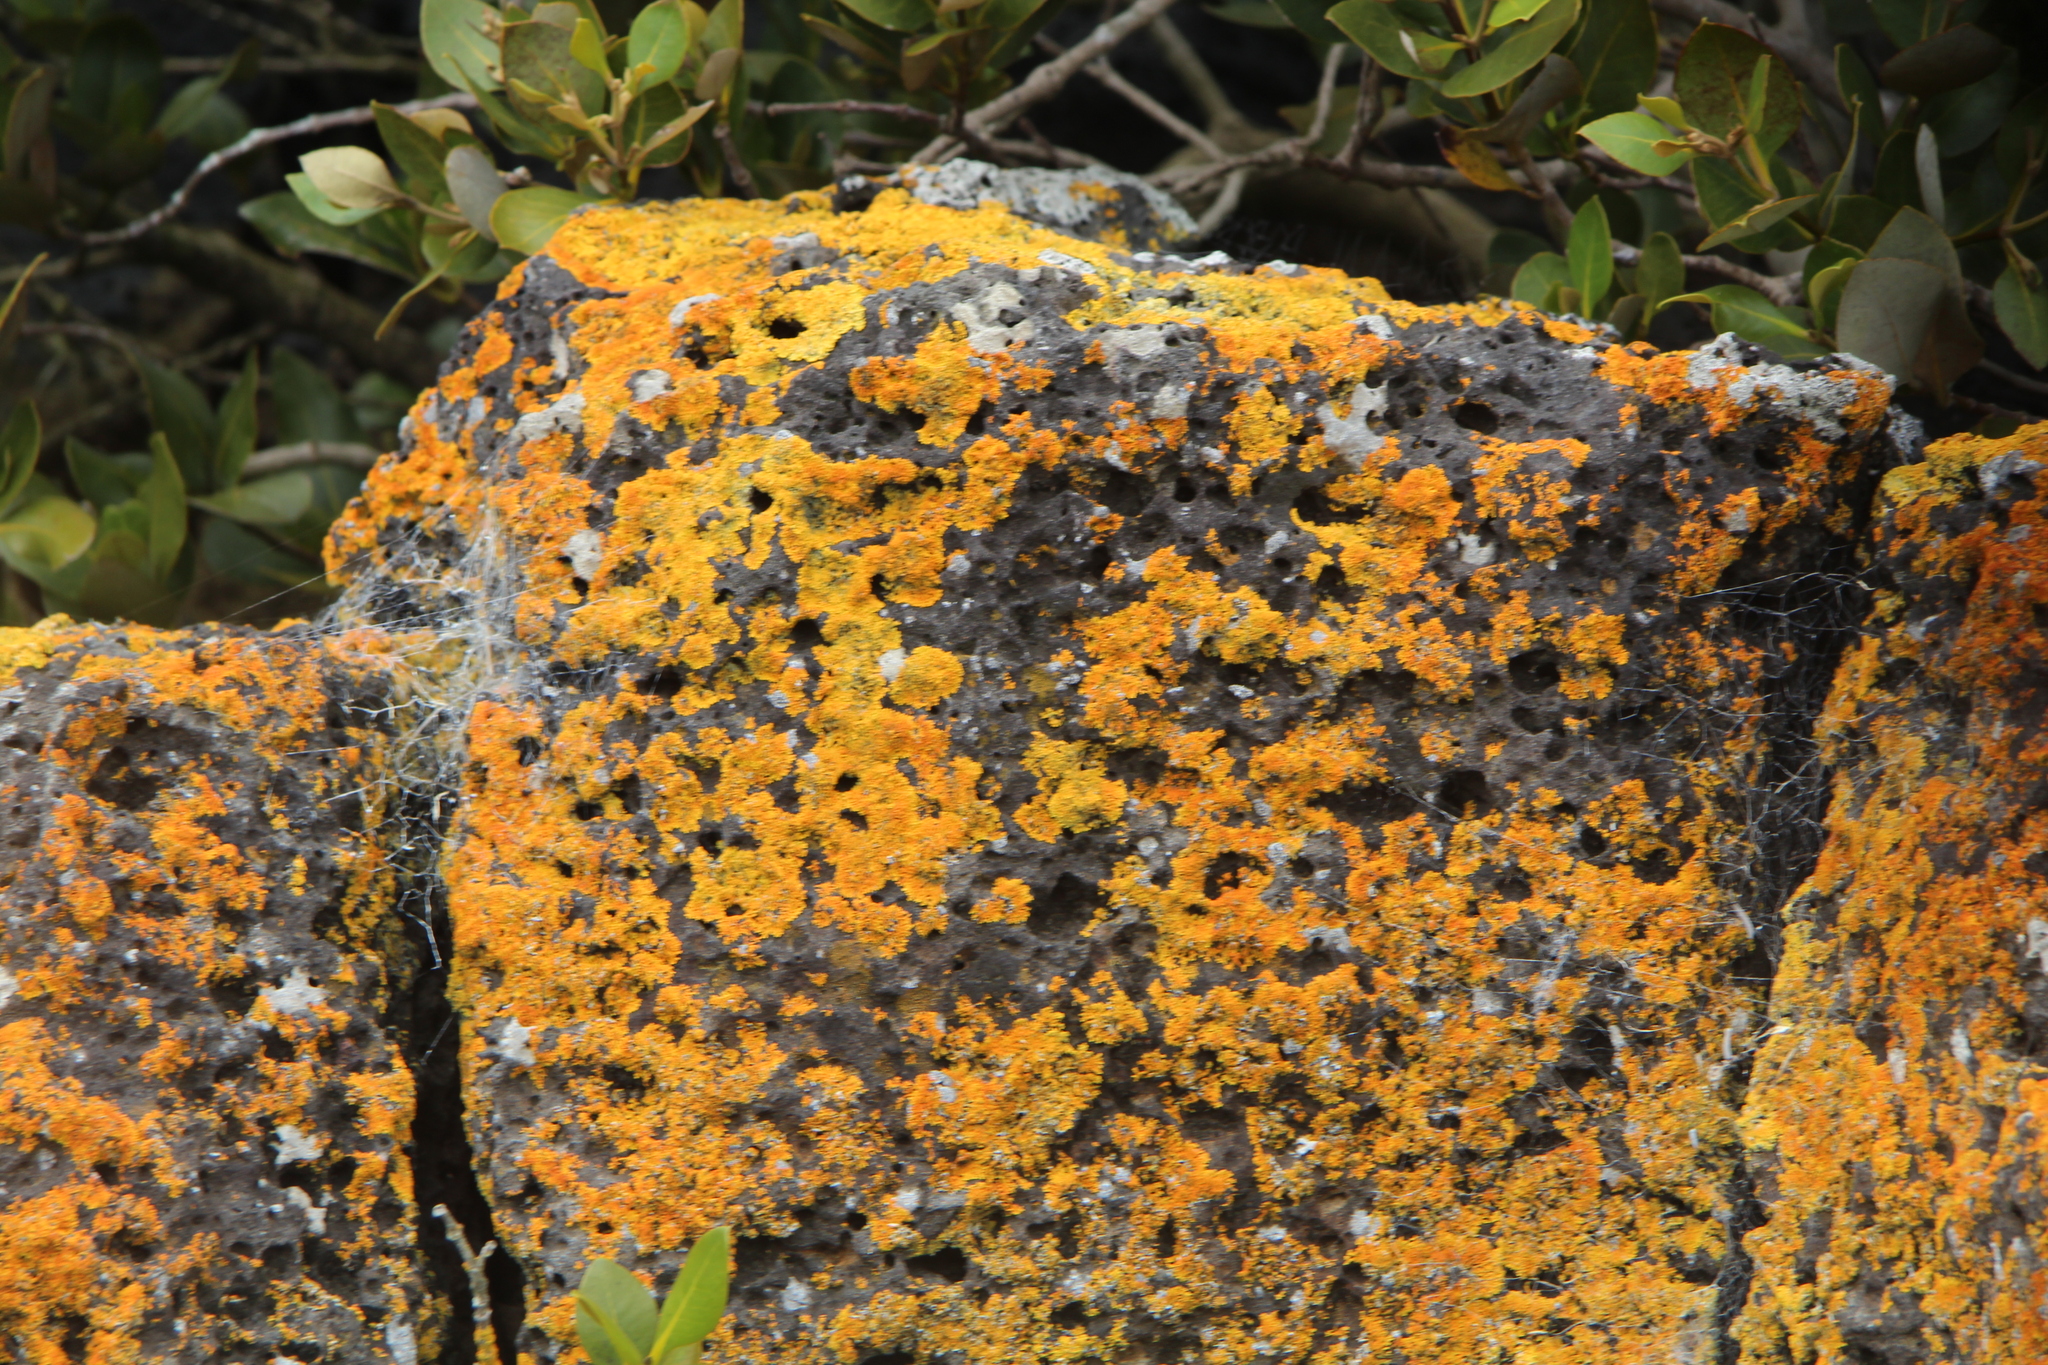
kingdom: Fungi
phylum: Ascomycota
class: Lecanoromycetes
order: Teloschistales
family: Teloschistaceae
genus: Dufourea
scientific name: Dufourea ligulata
